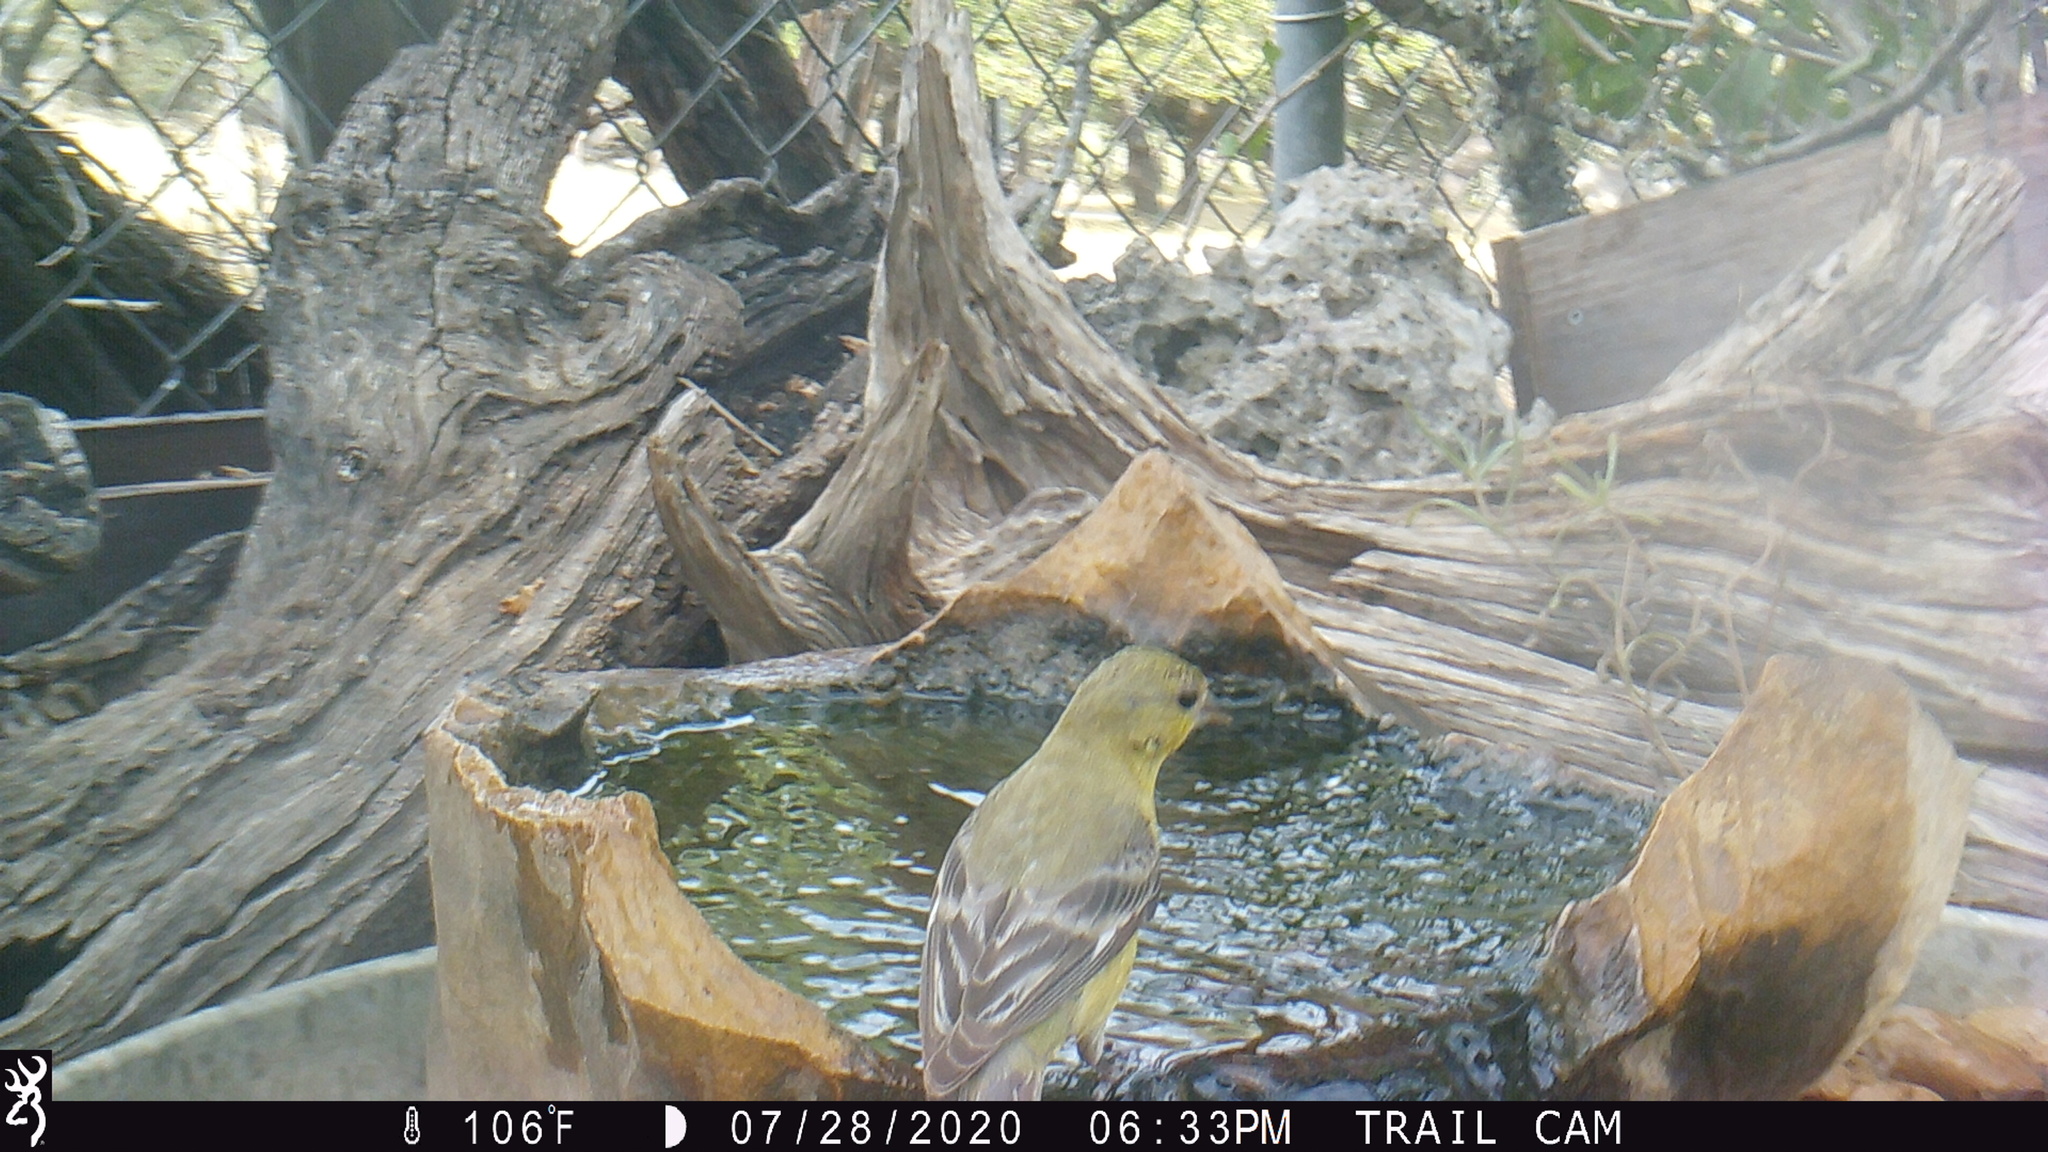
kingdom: Animalia
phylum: Chordata
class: Aves
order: Passeriformes
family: Fringillidae
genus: Spinus
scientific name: Spinus psaltria
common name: Lesser goldfinch
